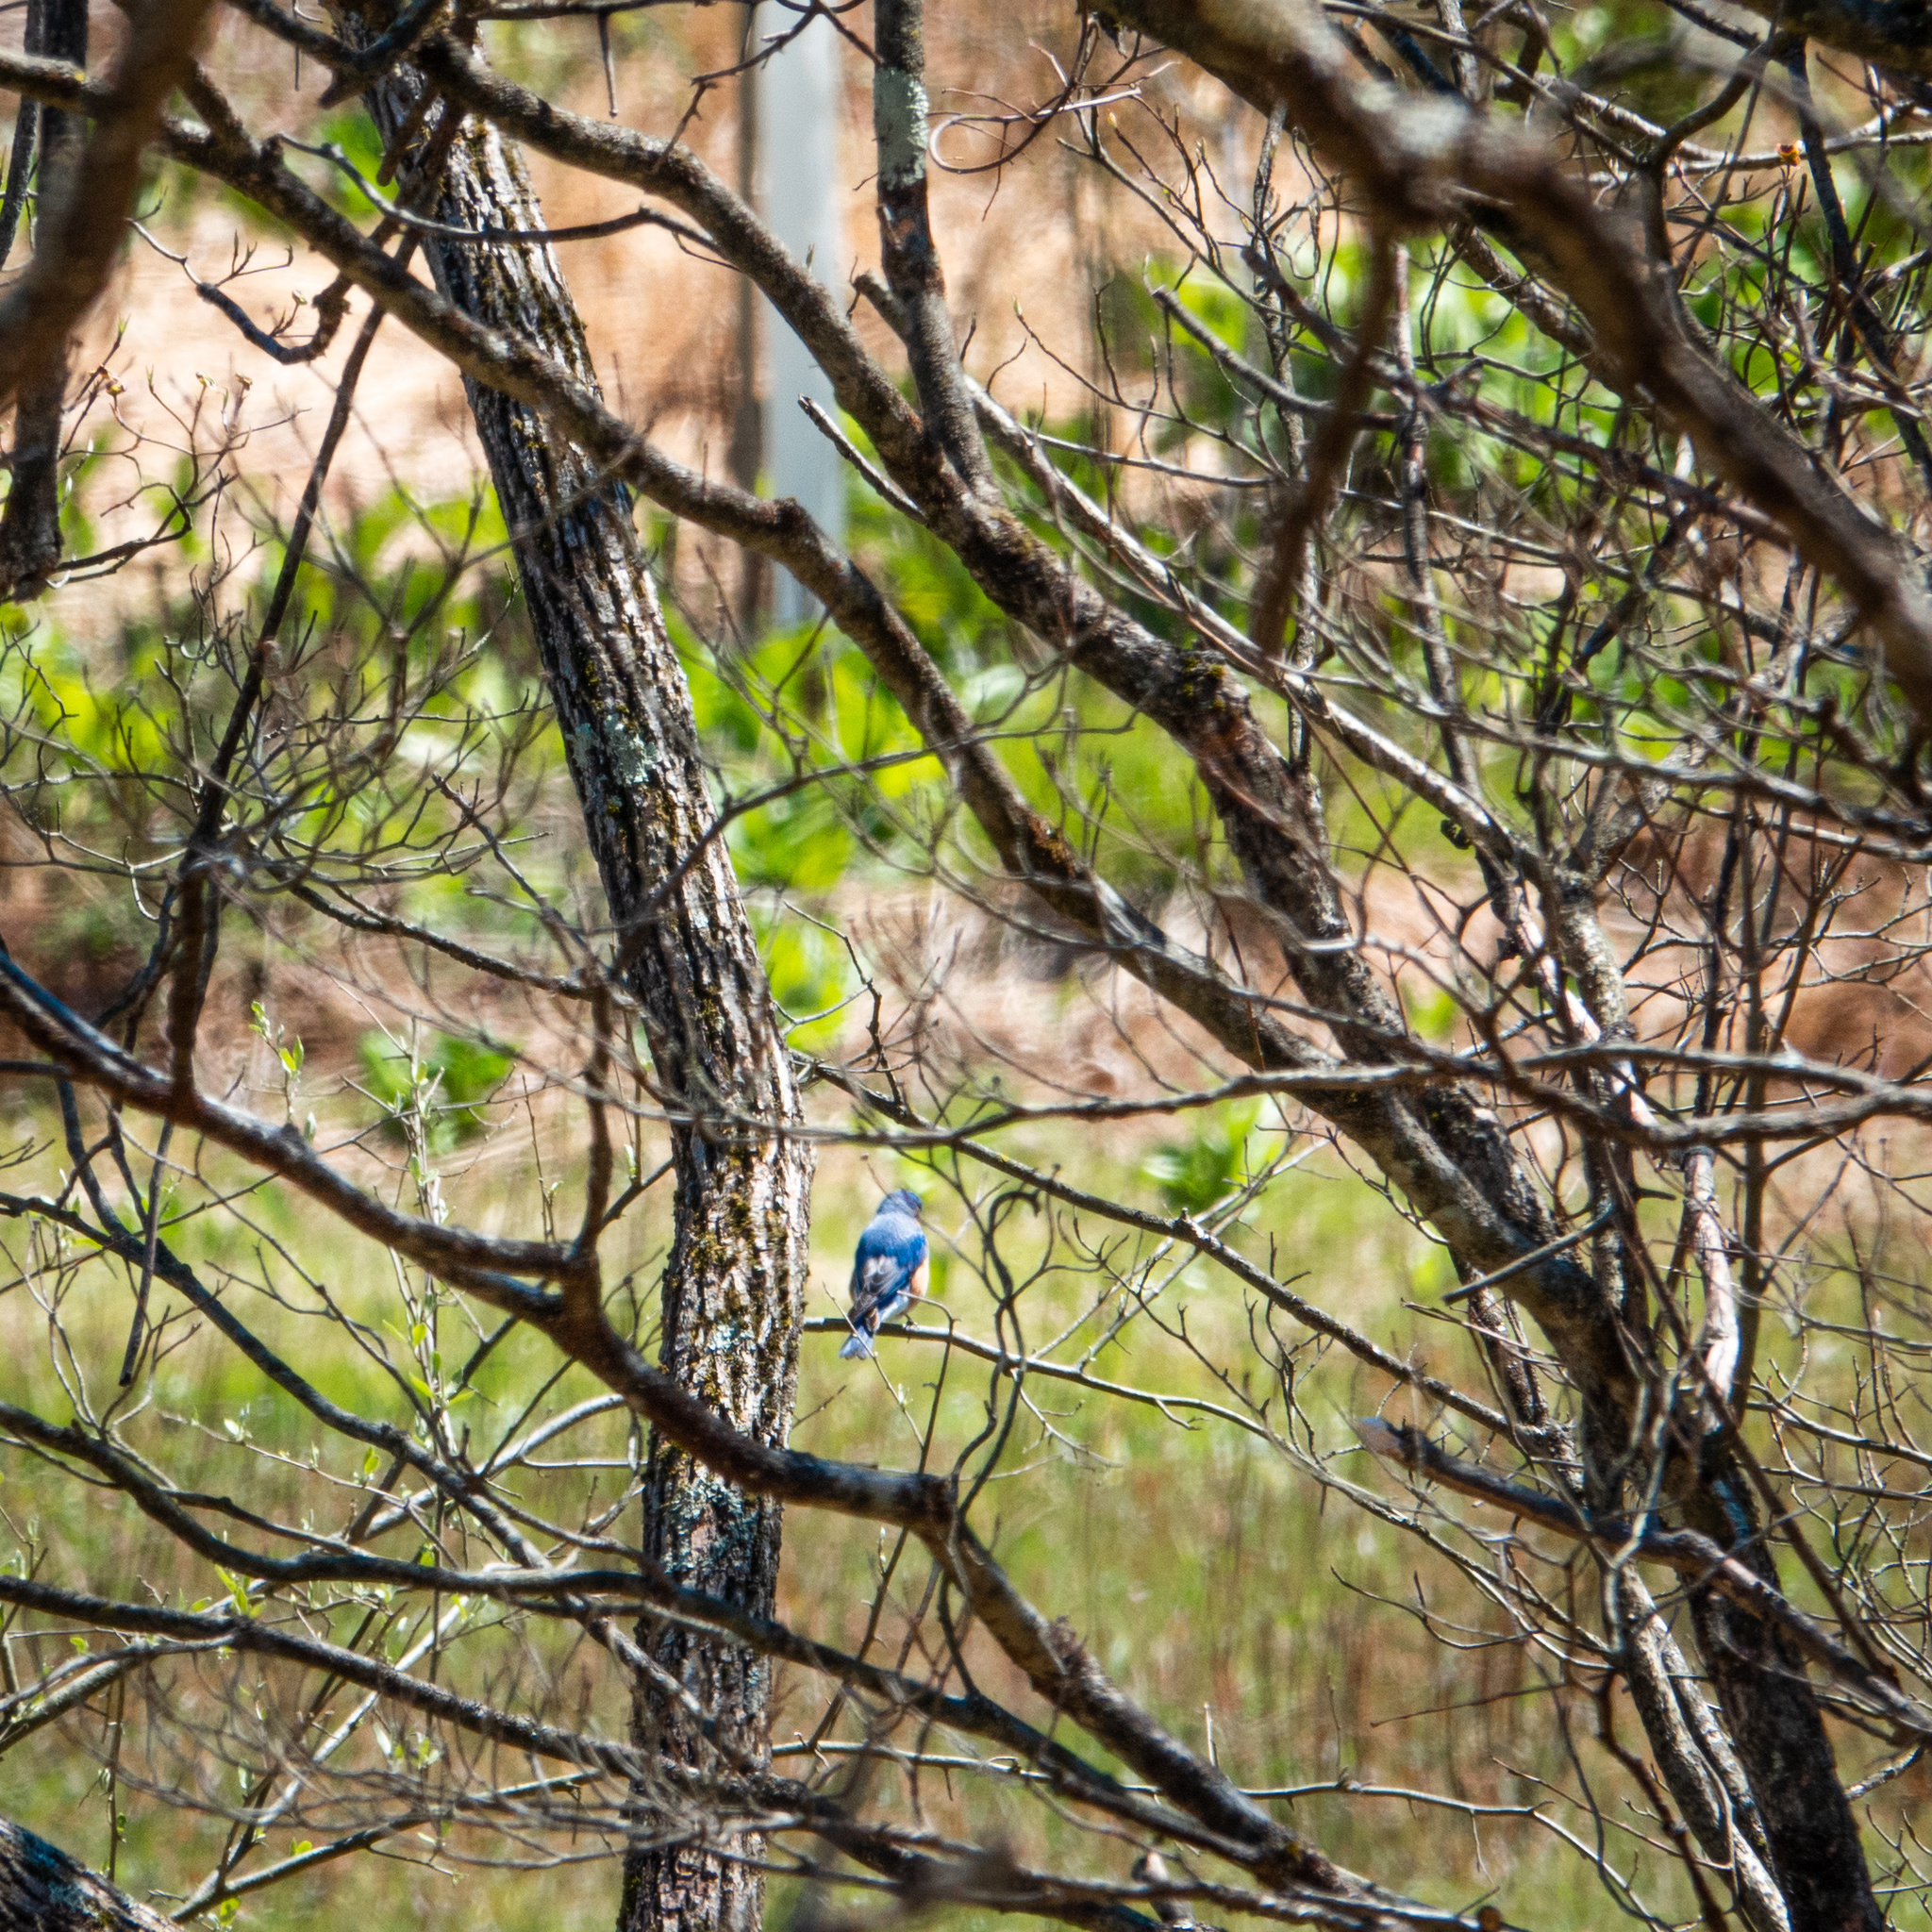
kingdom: Animalia
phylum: Chordata
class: Aves
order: Passeriformes
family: Turdidae
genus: Sialia
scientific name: Sialia sialis
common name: Eastern bluebird
